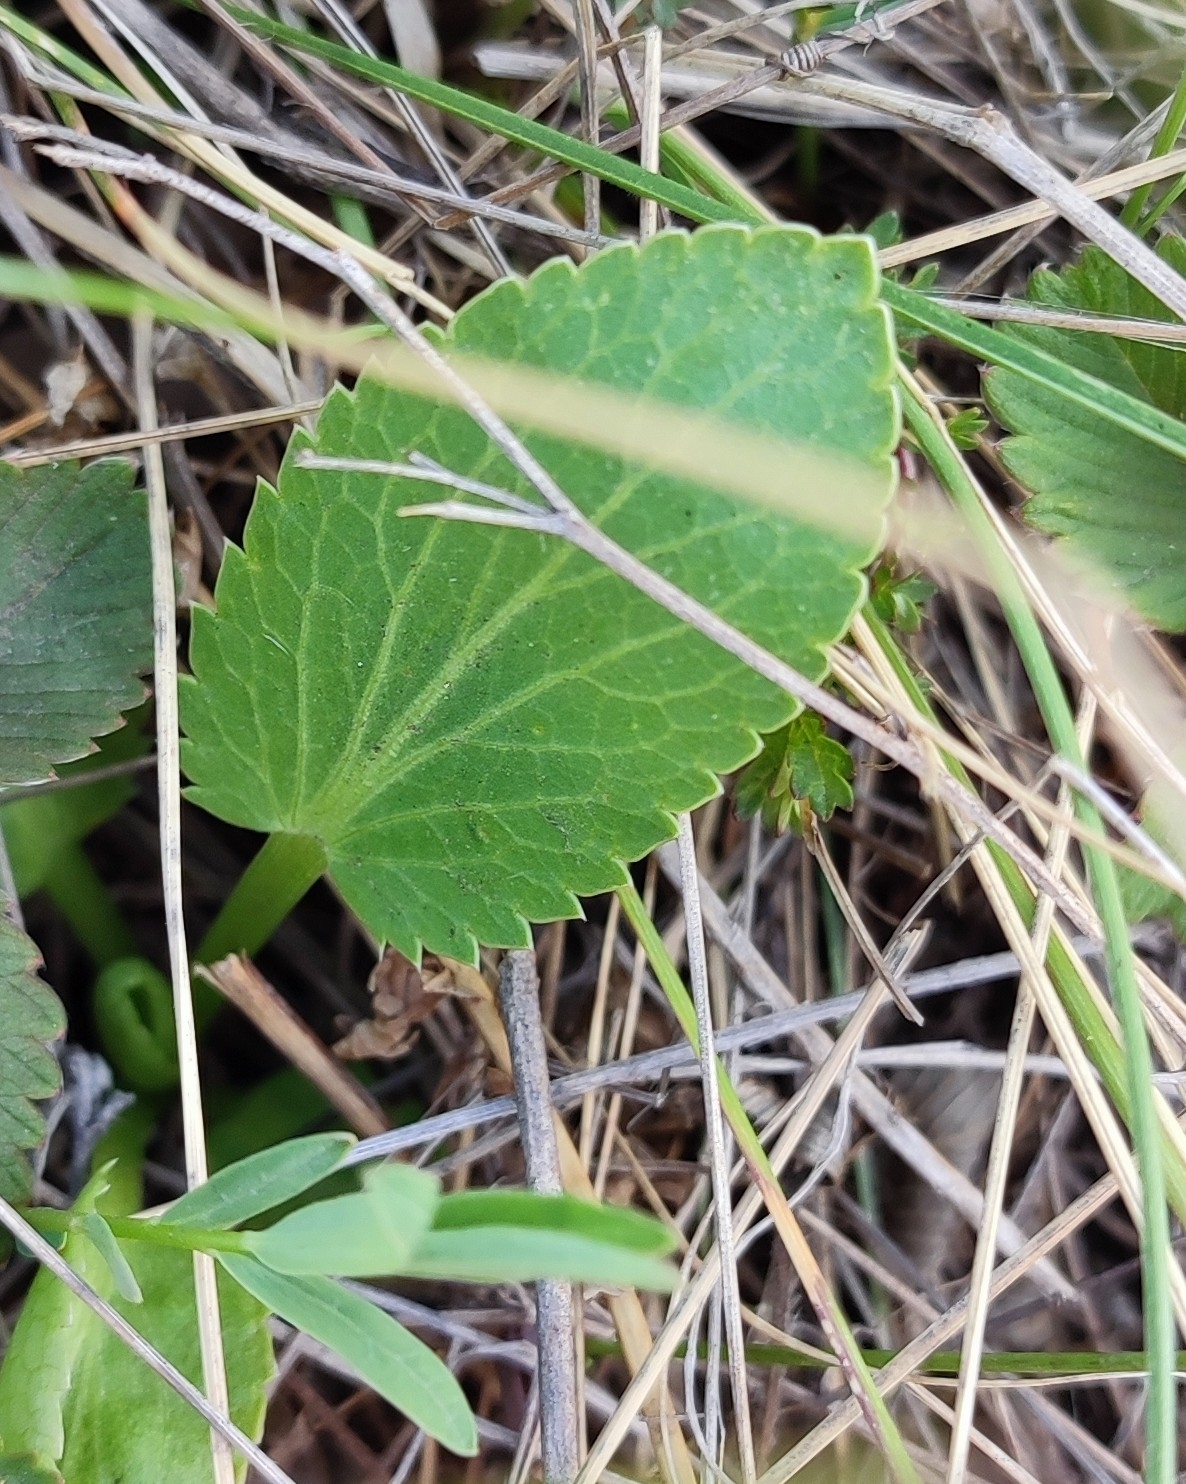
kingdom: Plantae
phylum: Tracheophyta
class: Magnoliopsida
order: Apiales
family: Apiaceae
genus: Eryngium
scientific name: Eryngium planum
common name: Blue eryngo
